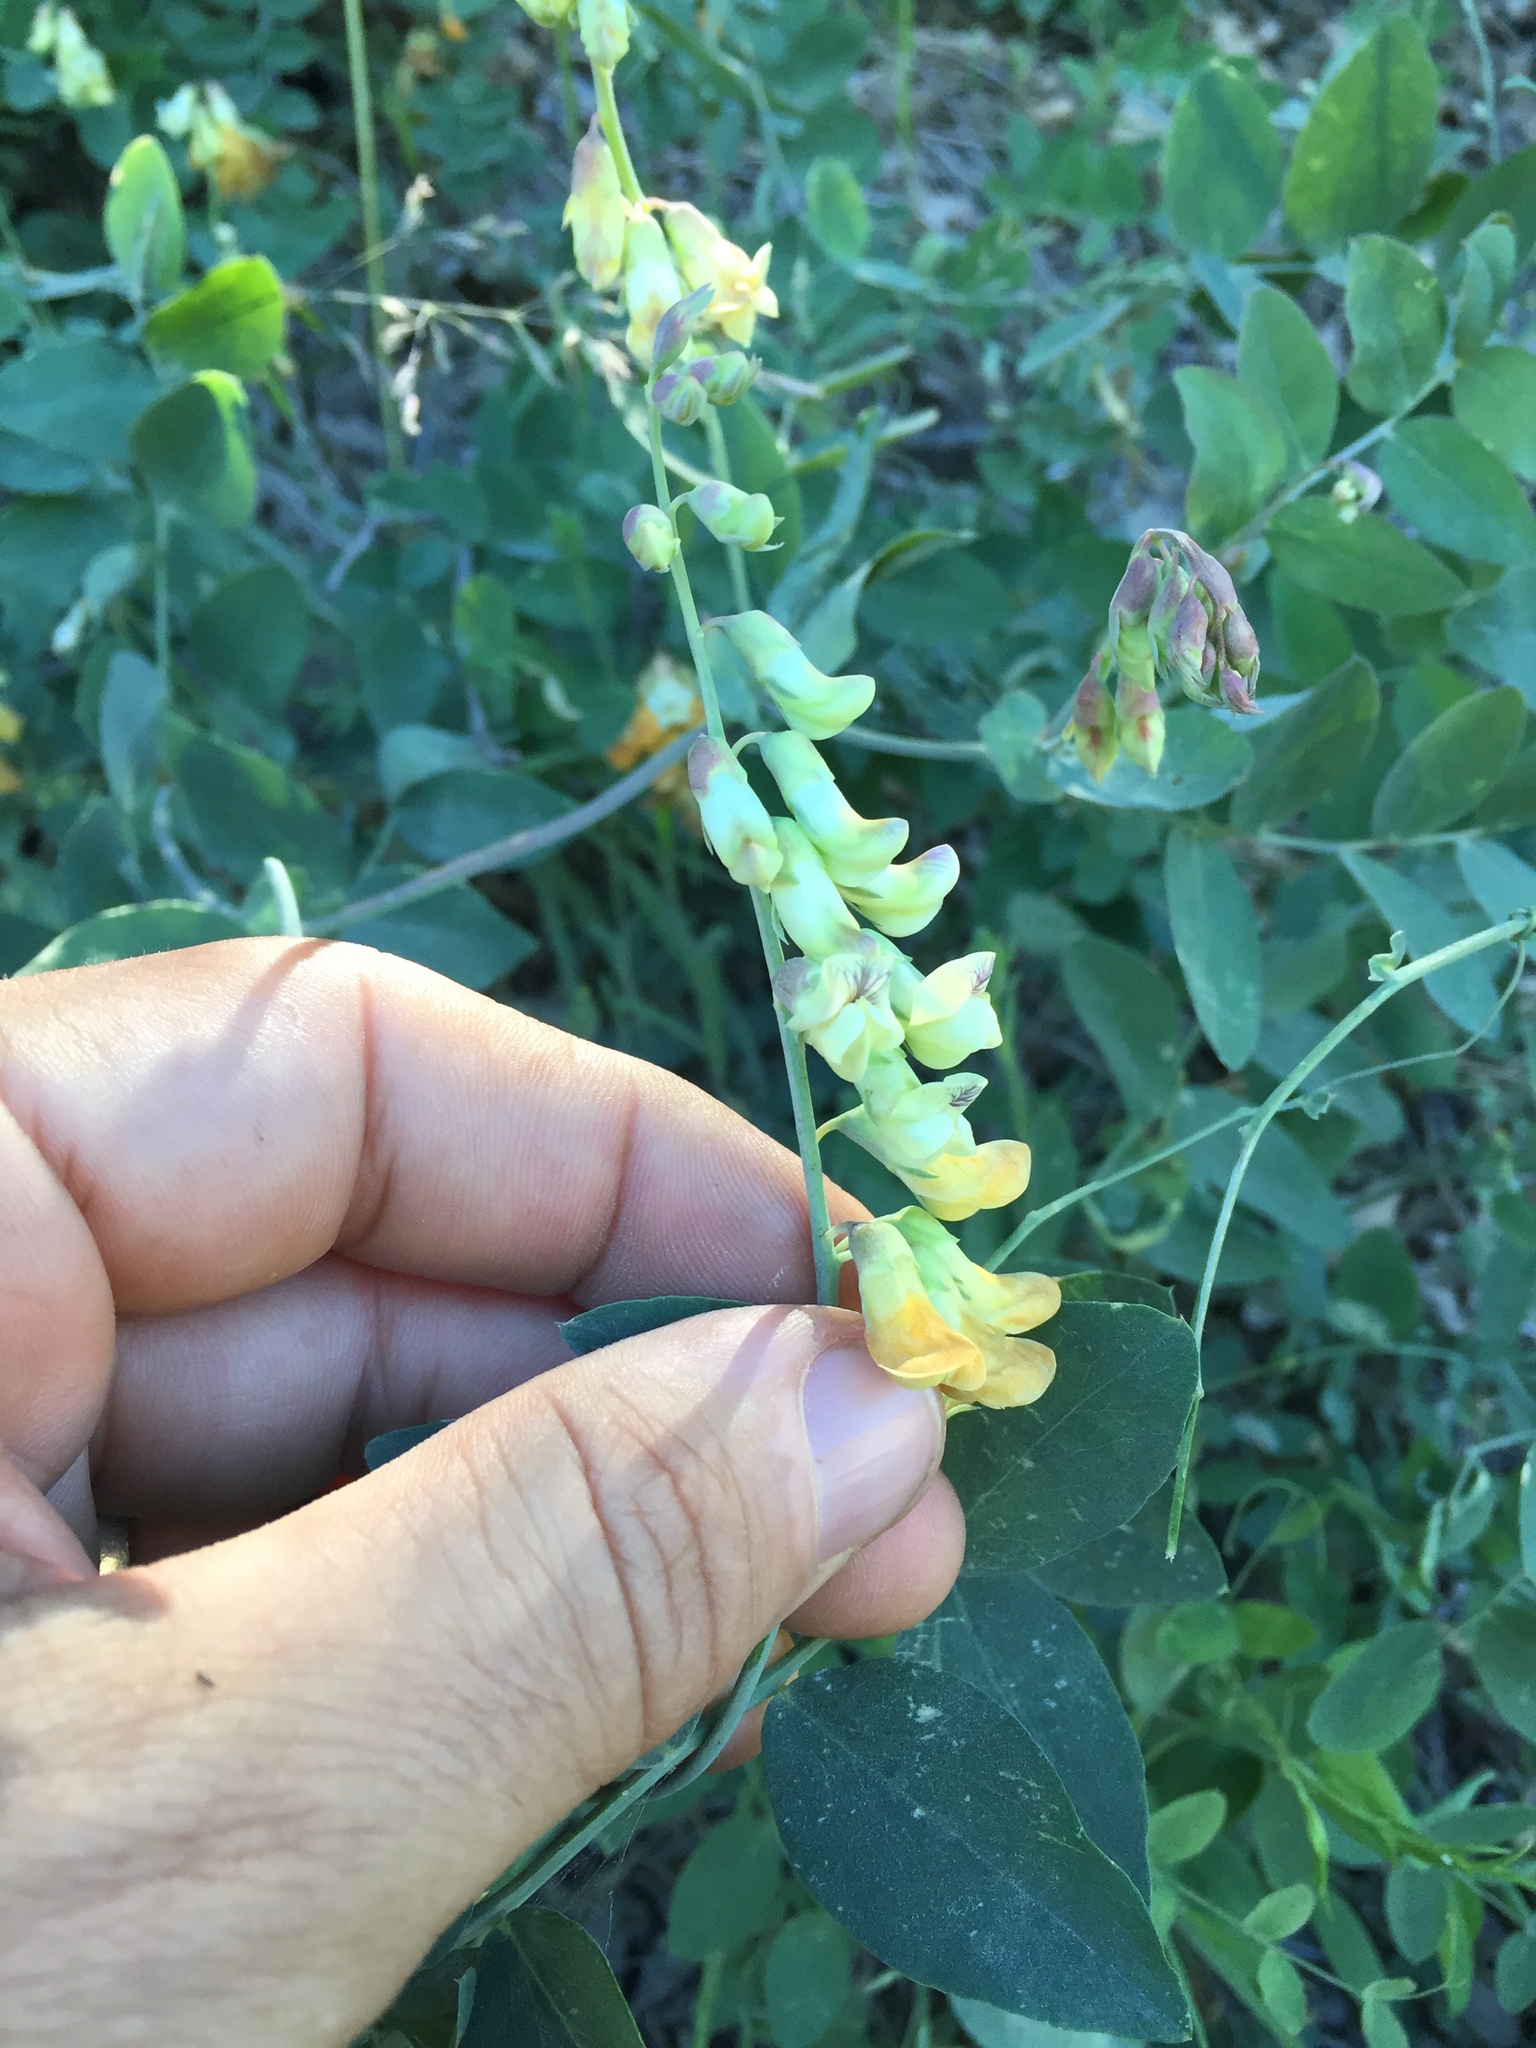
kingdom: Plantae
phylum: Tracheophyta
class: Magnoliopsida
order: Fabales
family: Fabaceae
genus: Lathyrus
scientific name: Lathyrus sulphureus
